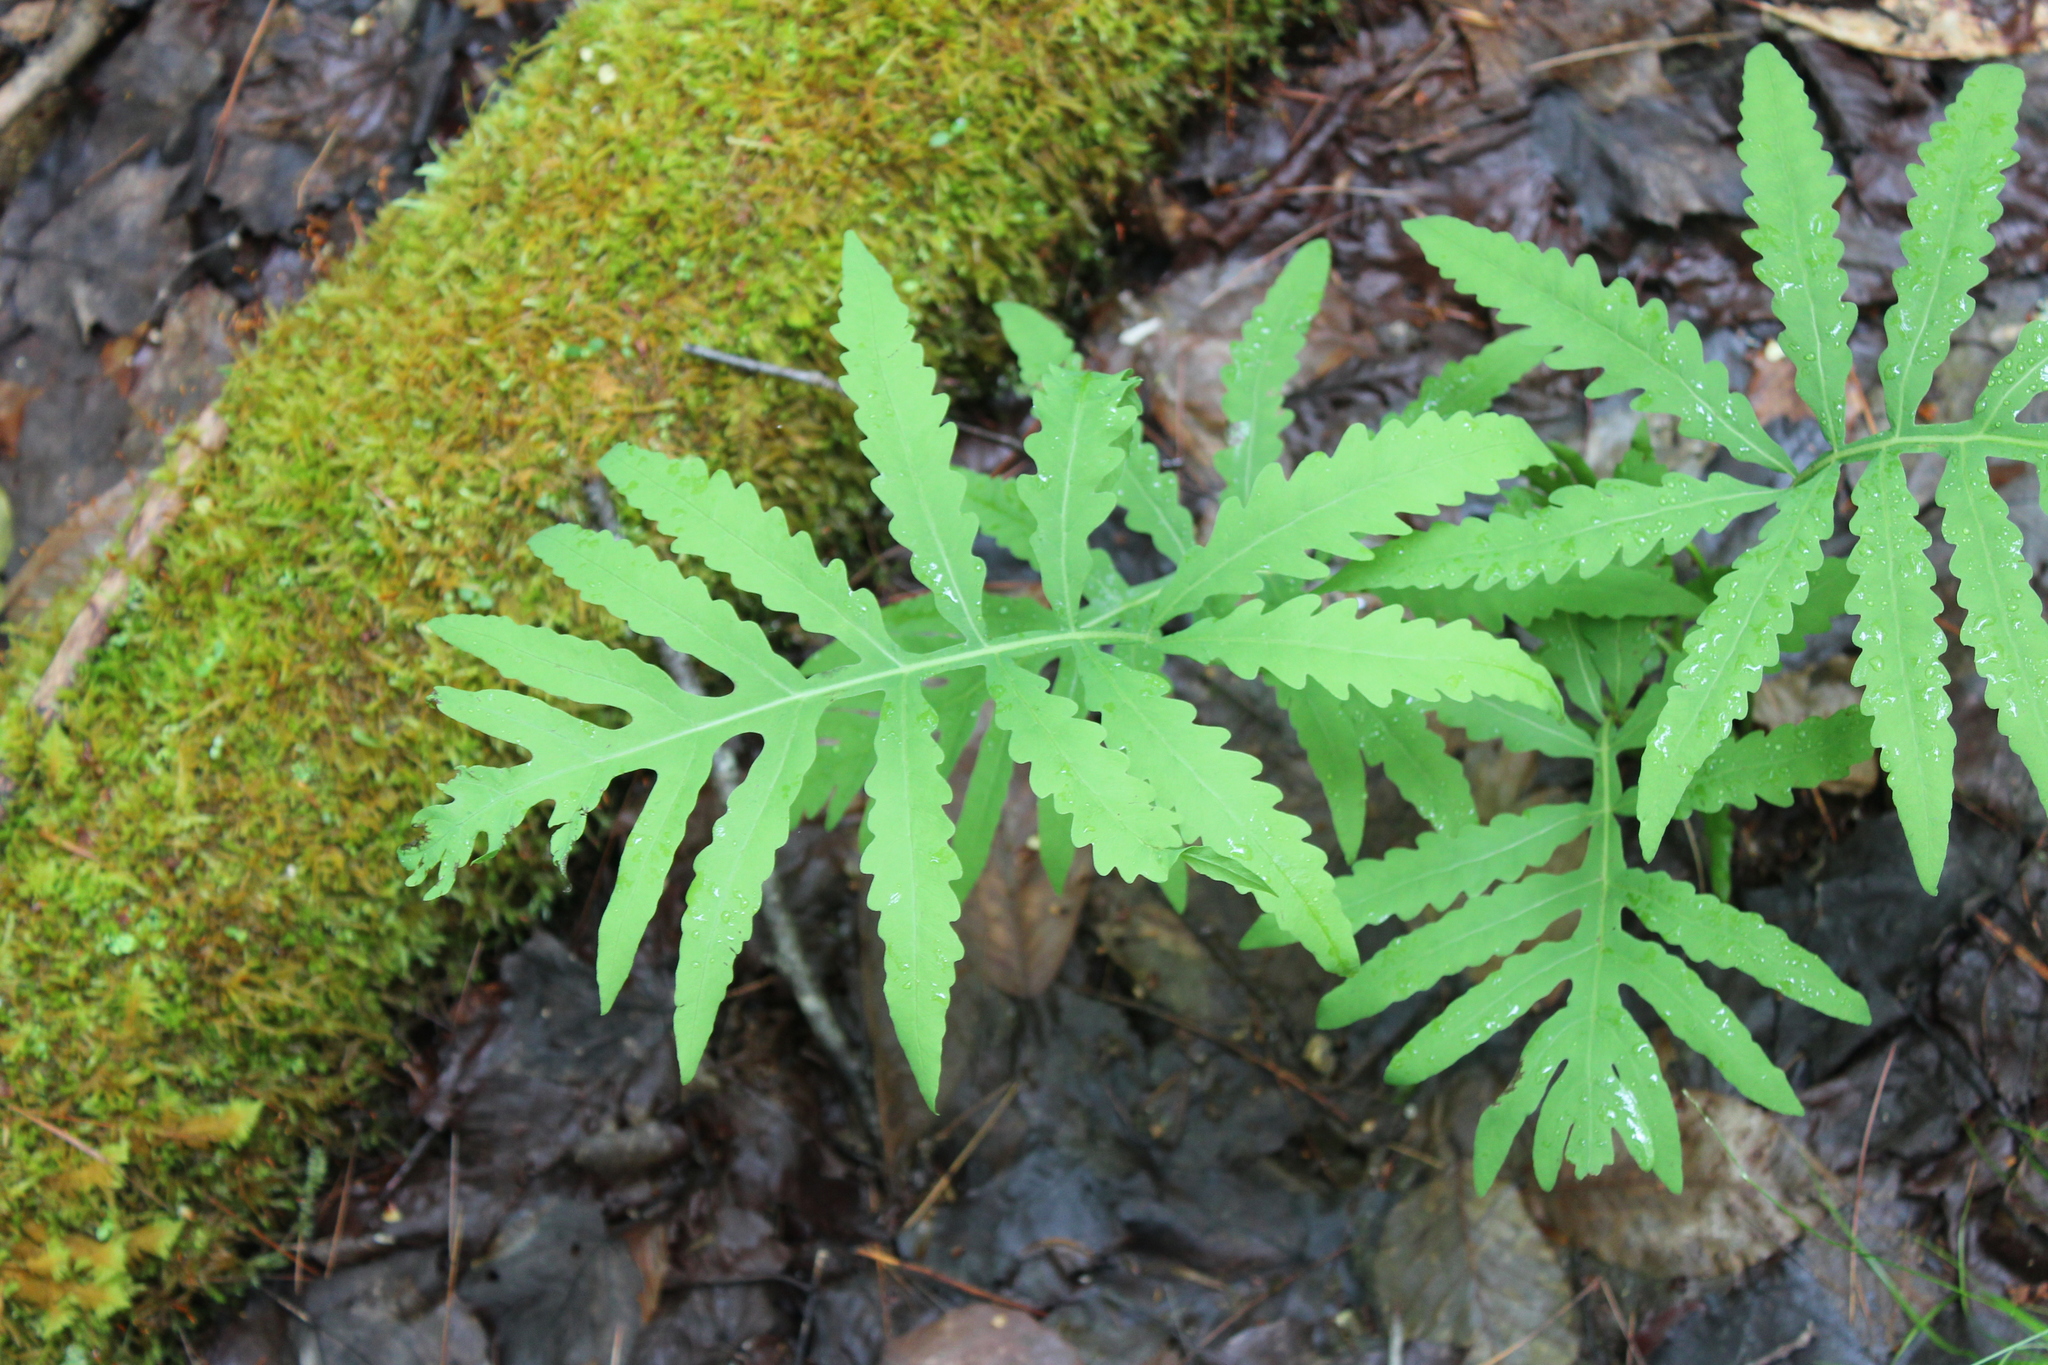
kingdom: Plantae
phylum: Tracheophyta
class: Polypodiopsida
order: Polypodiales
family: Onocleaceae
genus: Onoclea
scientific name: Onoclea sensibilis
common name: Sensitive fern
